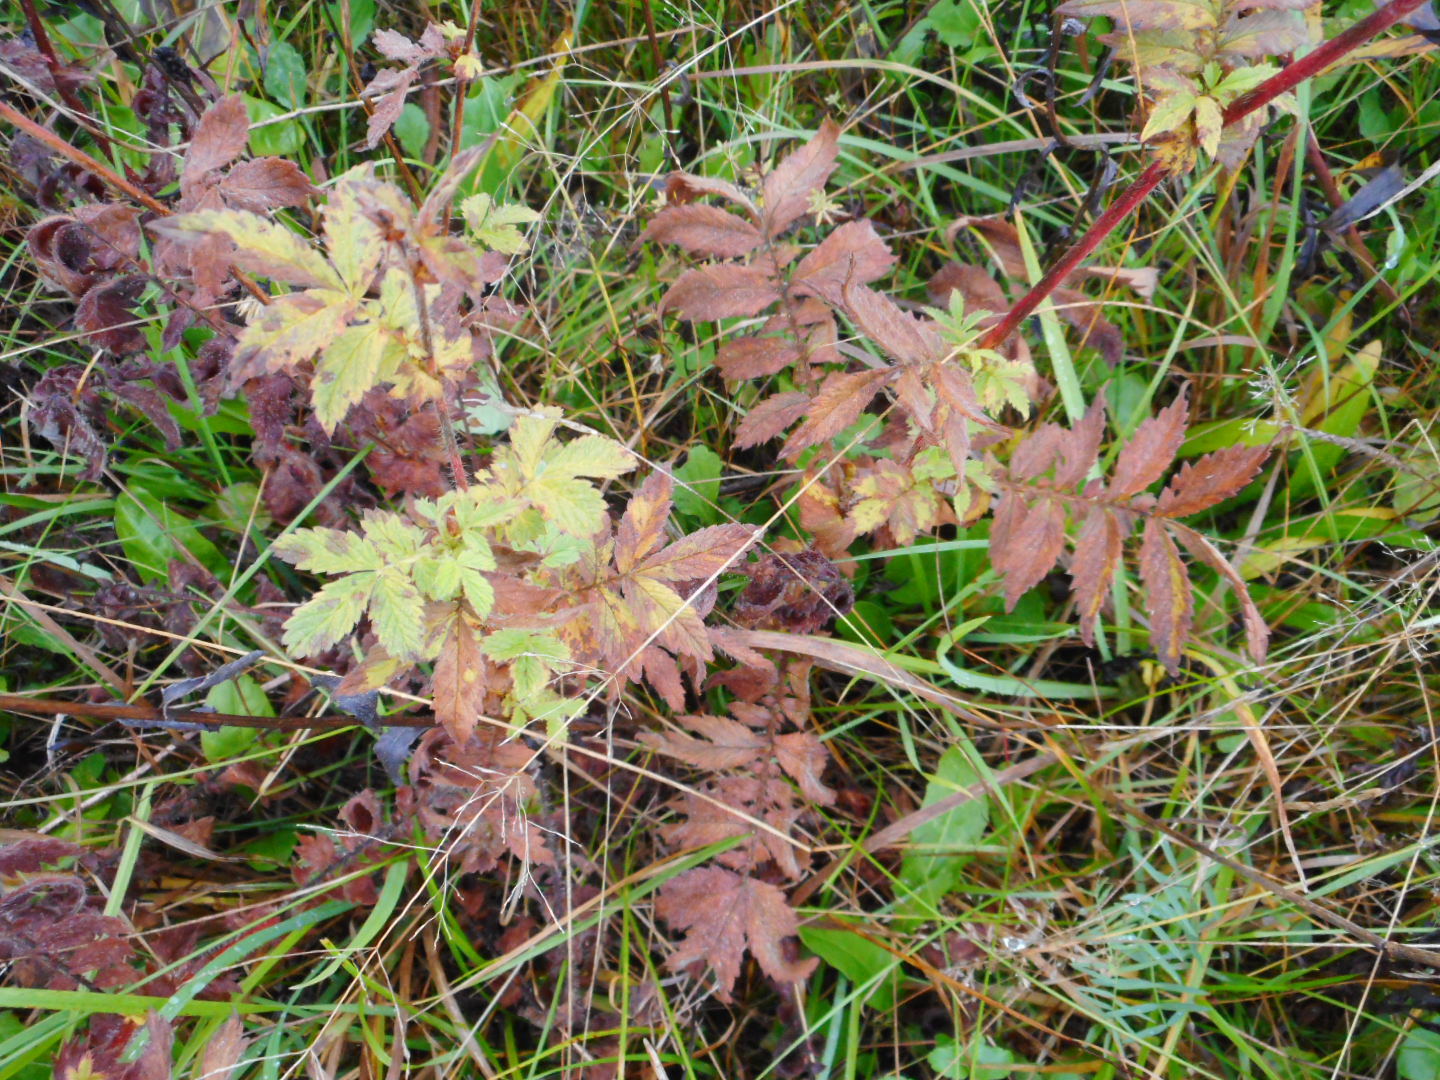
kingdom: Plantae
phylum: Tracheophyta
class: Magnoliopsida
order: Rosales
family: Rosaceae
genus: Agrimonia
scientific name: Agrimonia eupatoria
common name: Agrimony
